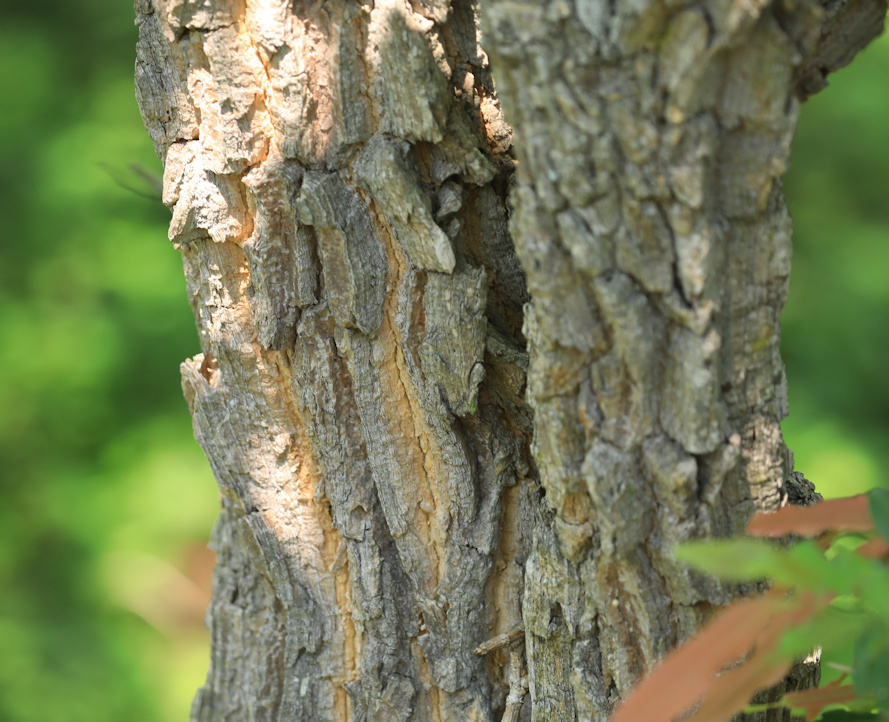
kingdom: Plantae
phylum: Tracheophyta
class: Magnoliopsida
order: Gentianales
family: Apocynaceae
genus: Rauvolfia
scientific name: Rauvolfia caffra
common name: Quininetree
